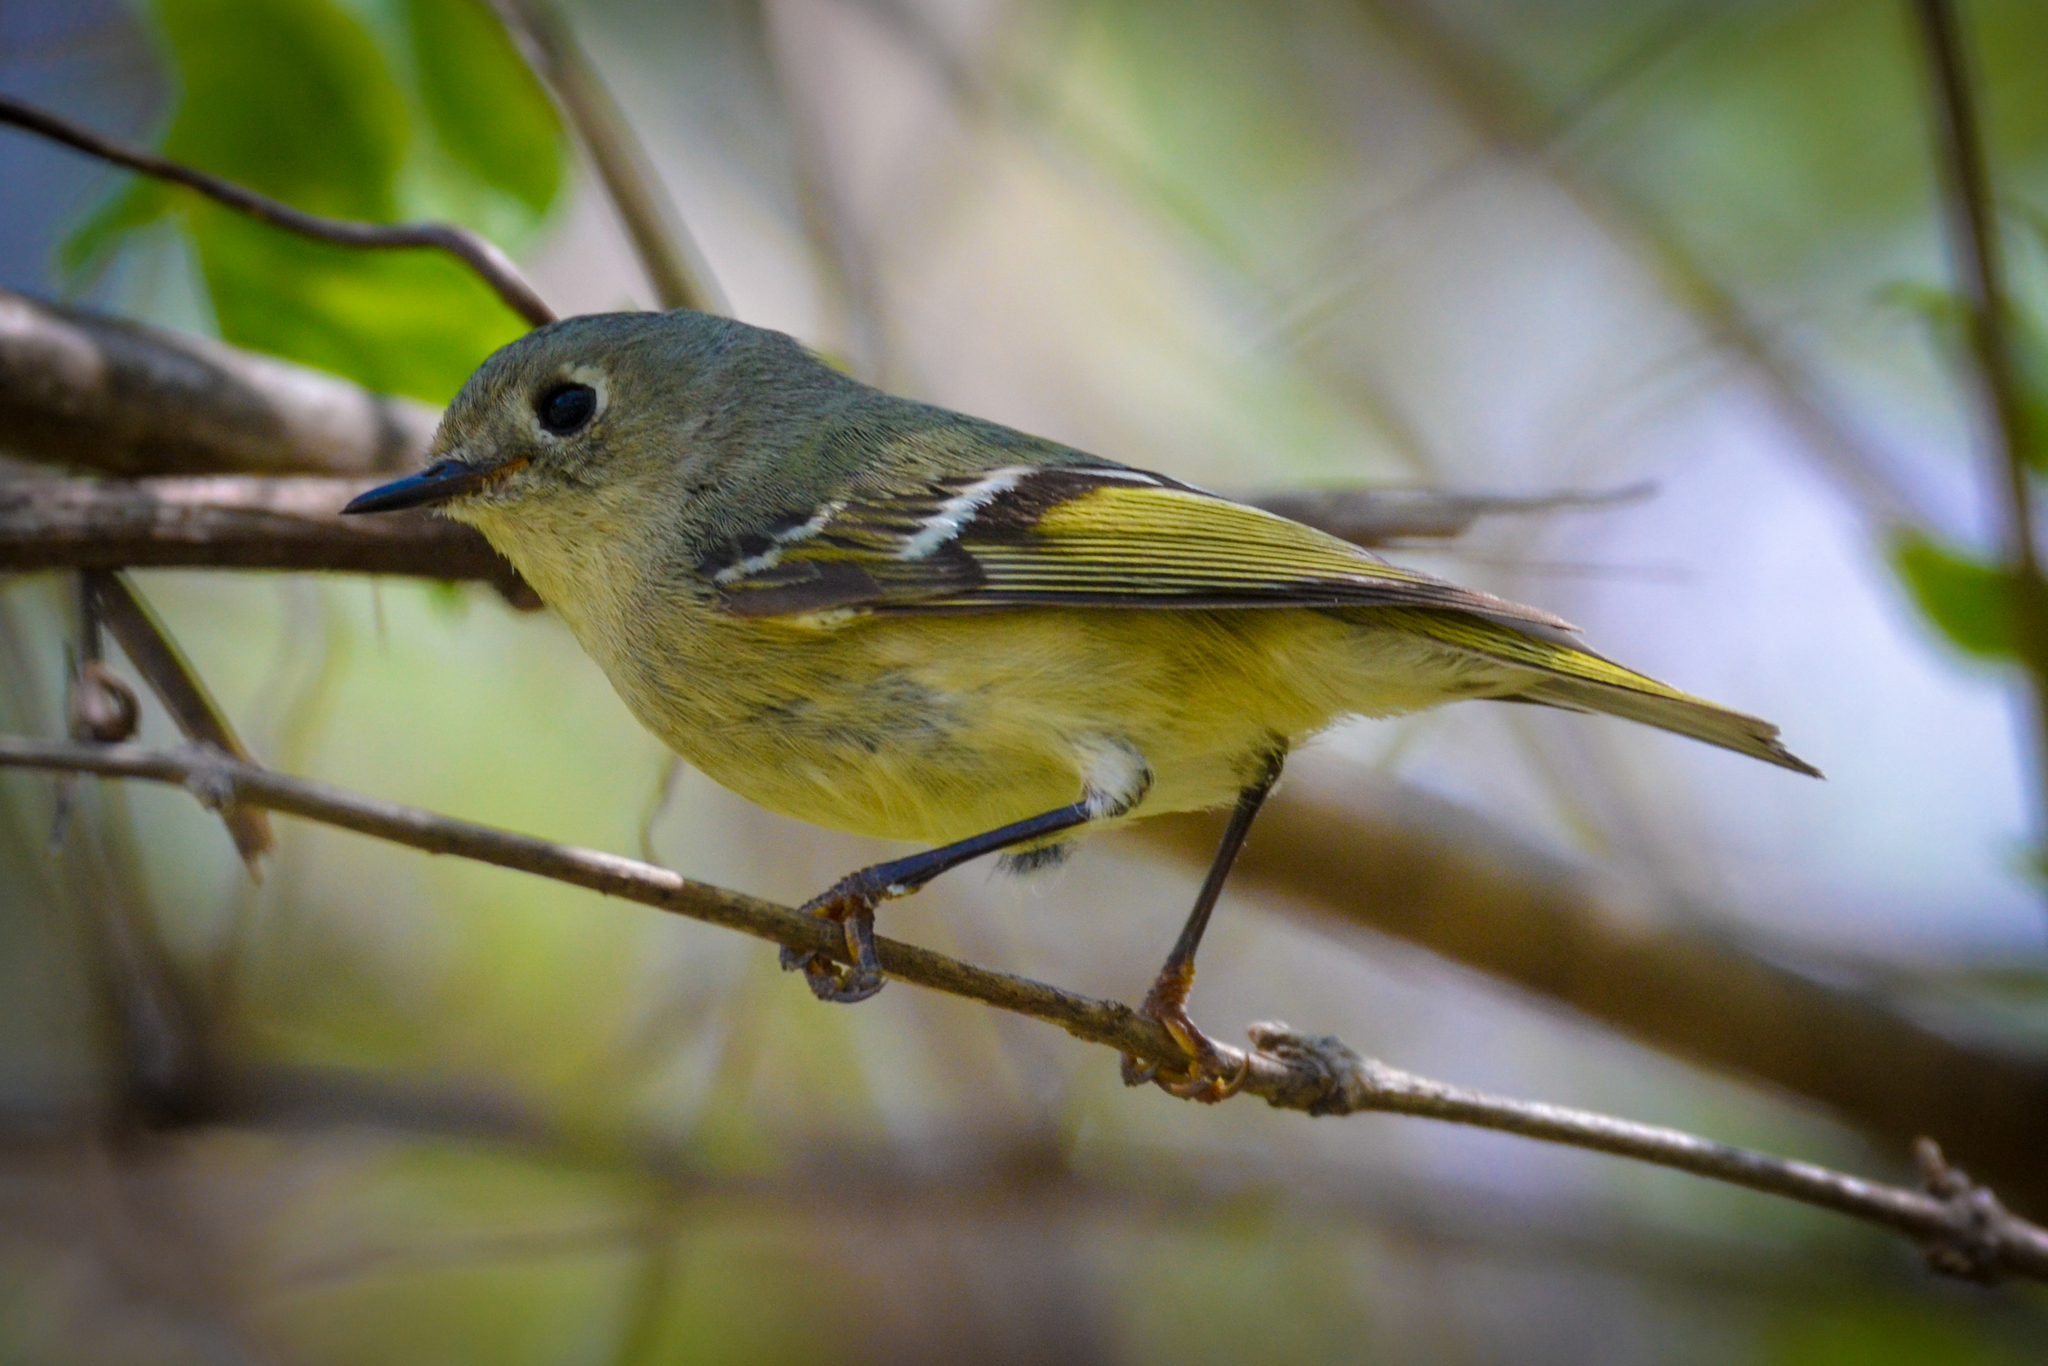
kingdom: Animalia
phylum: Chordata
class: Aves
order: Passeriformes
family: Regulidae
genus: Regulus
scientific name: Regulus calendula
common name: Ruby-crowned kinglet
